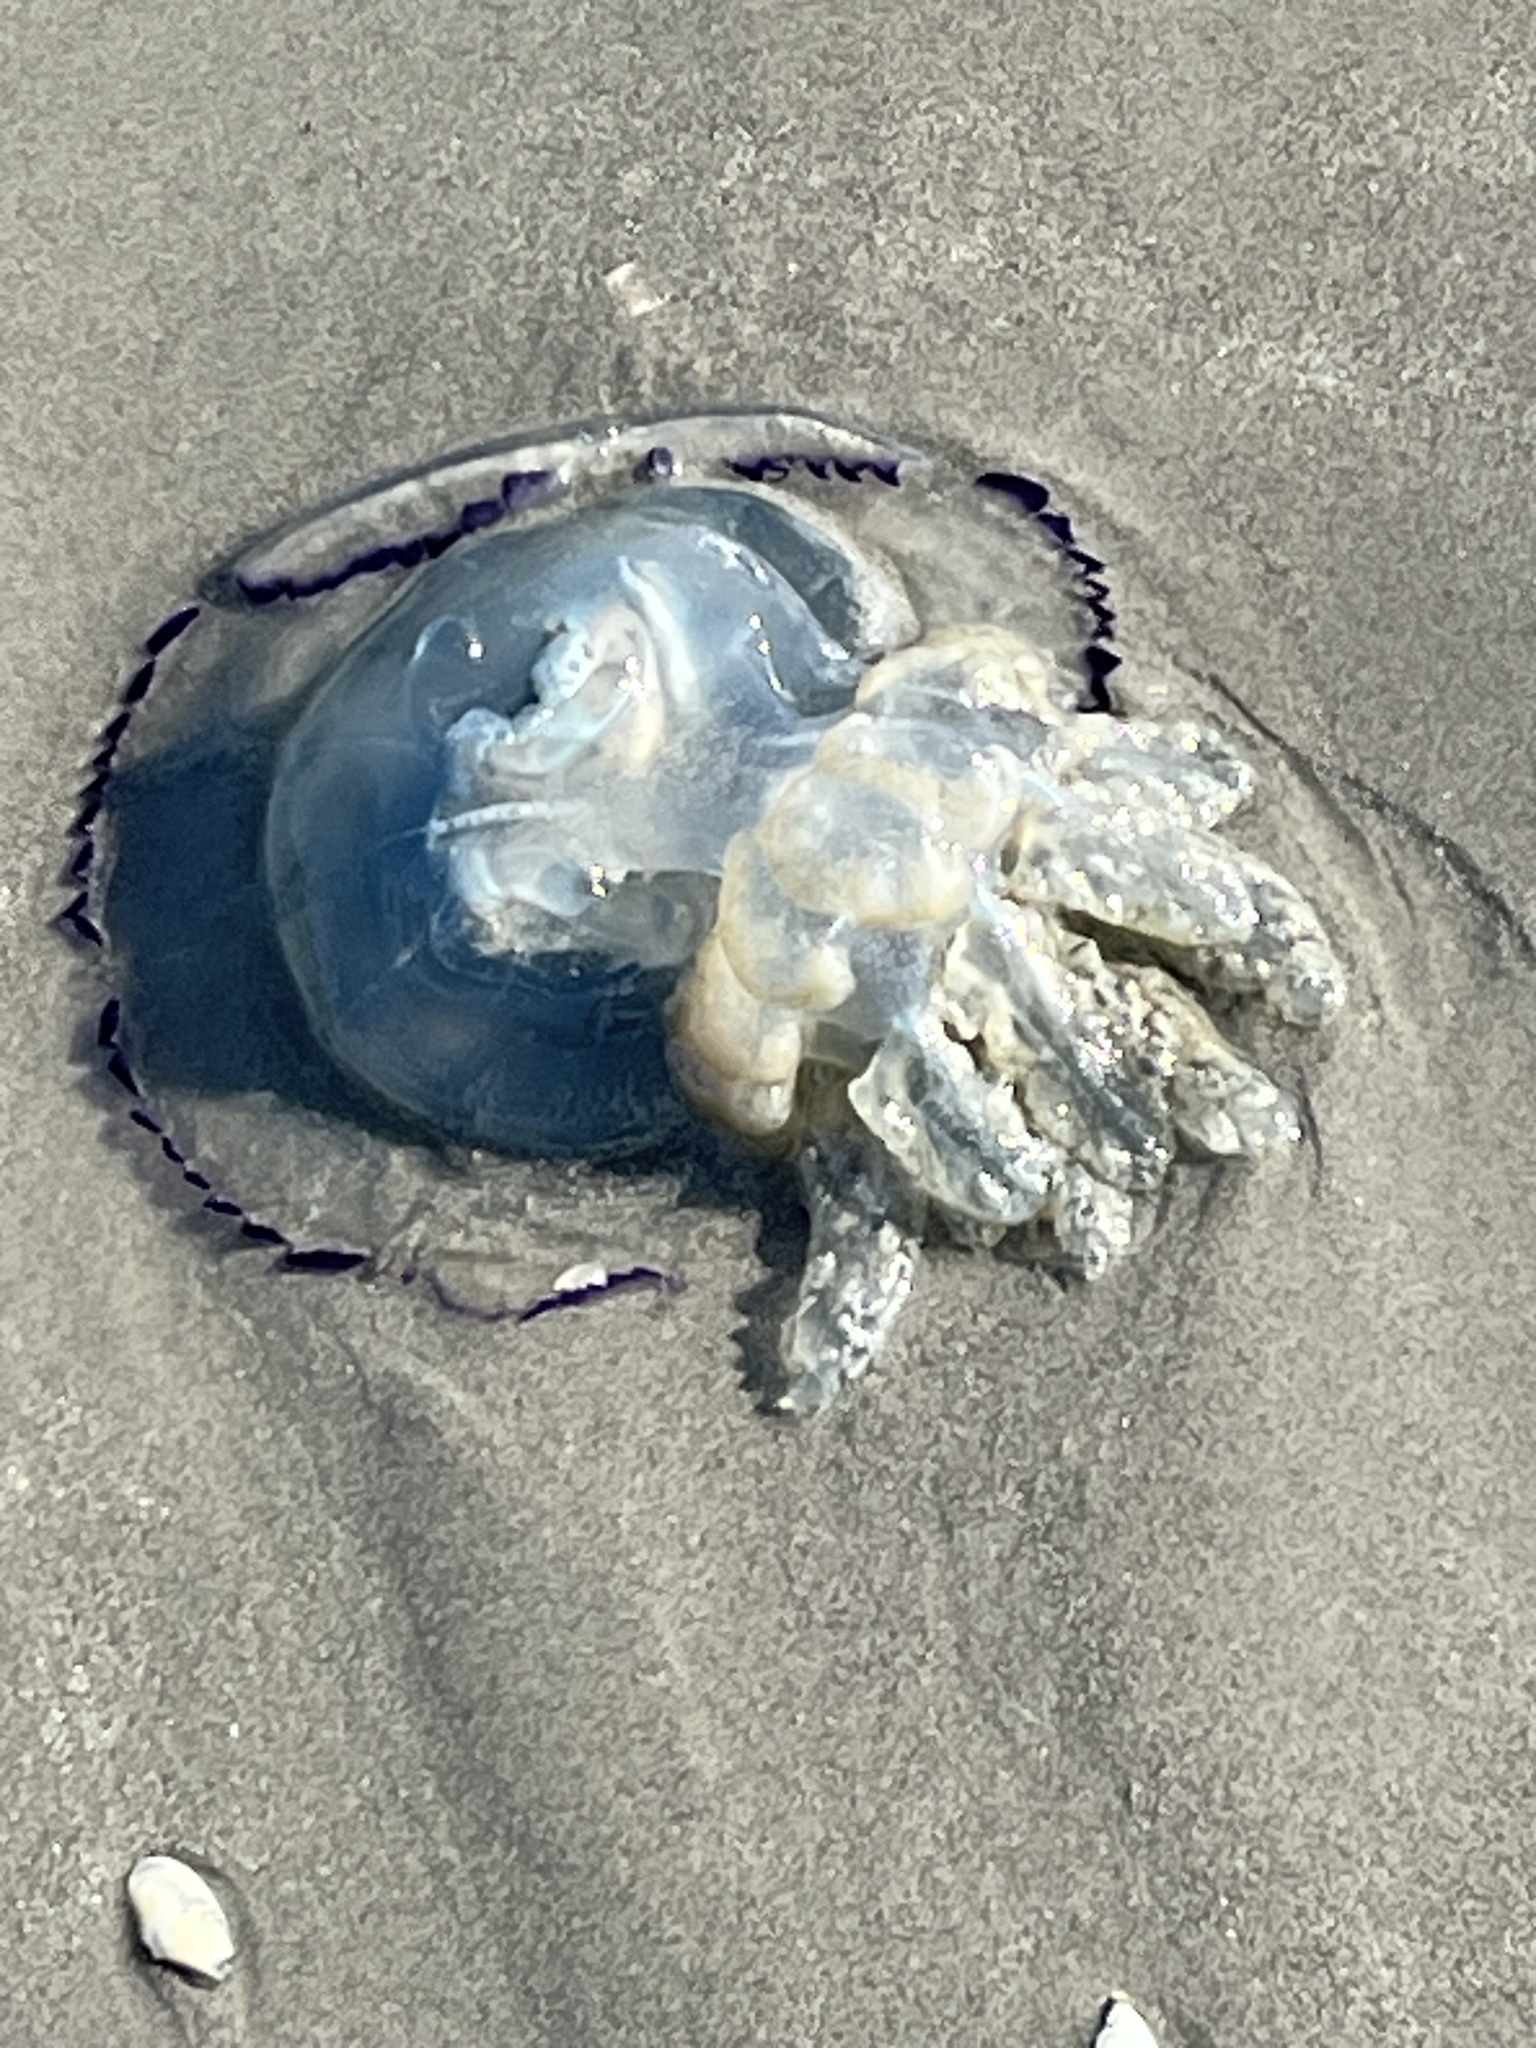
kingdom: Animalia
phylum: Cnidaria
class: Scyphozoa
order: Rhizostomeae
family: Rhizostomatidae
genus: Rhizostoma
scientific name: Rhizostoma octopus
